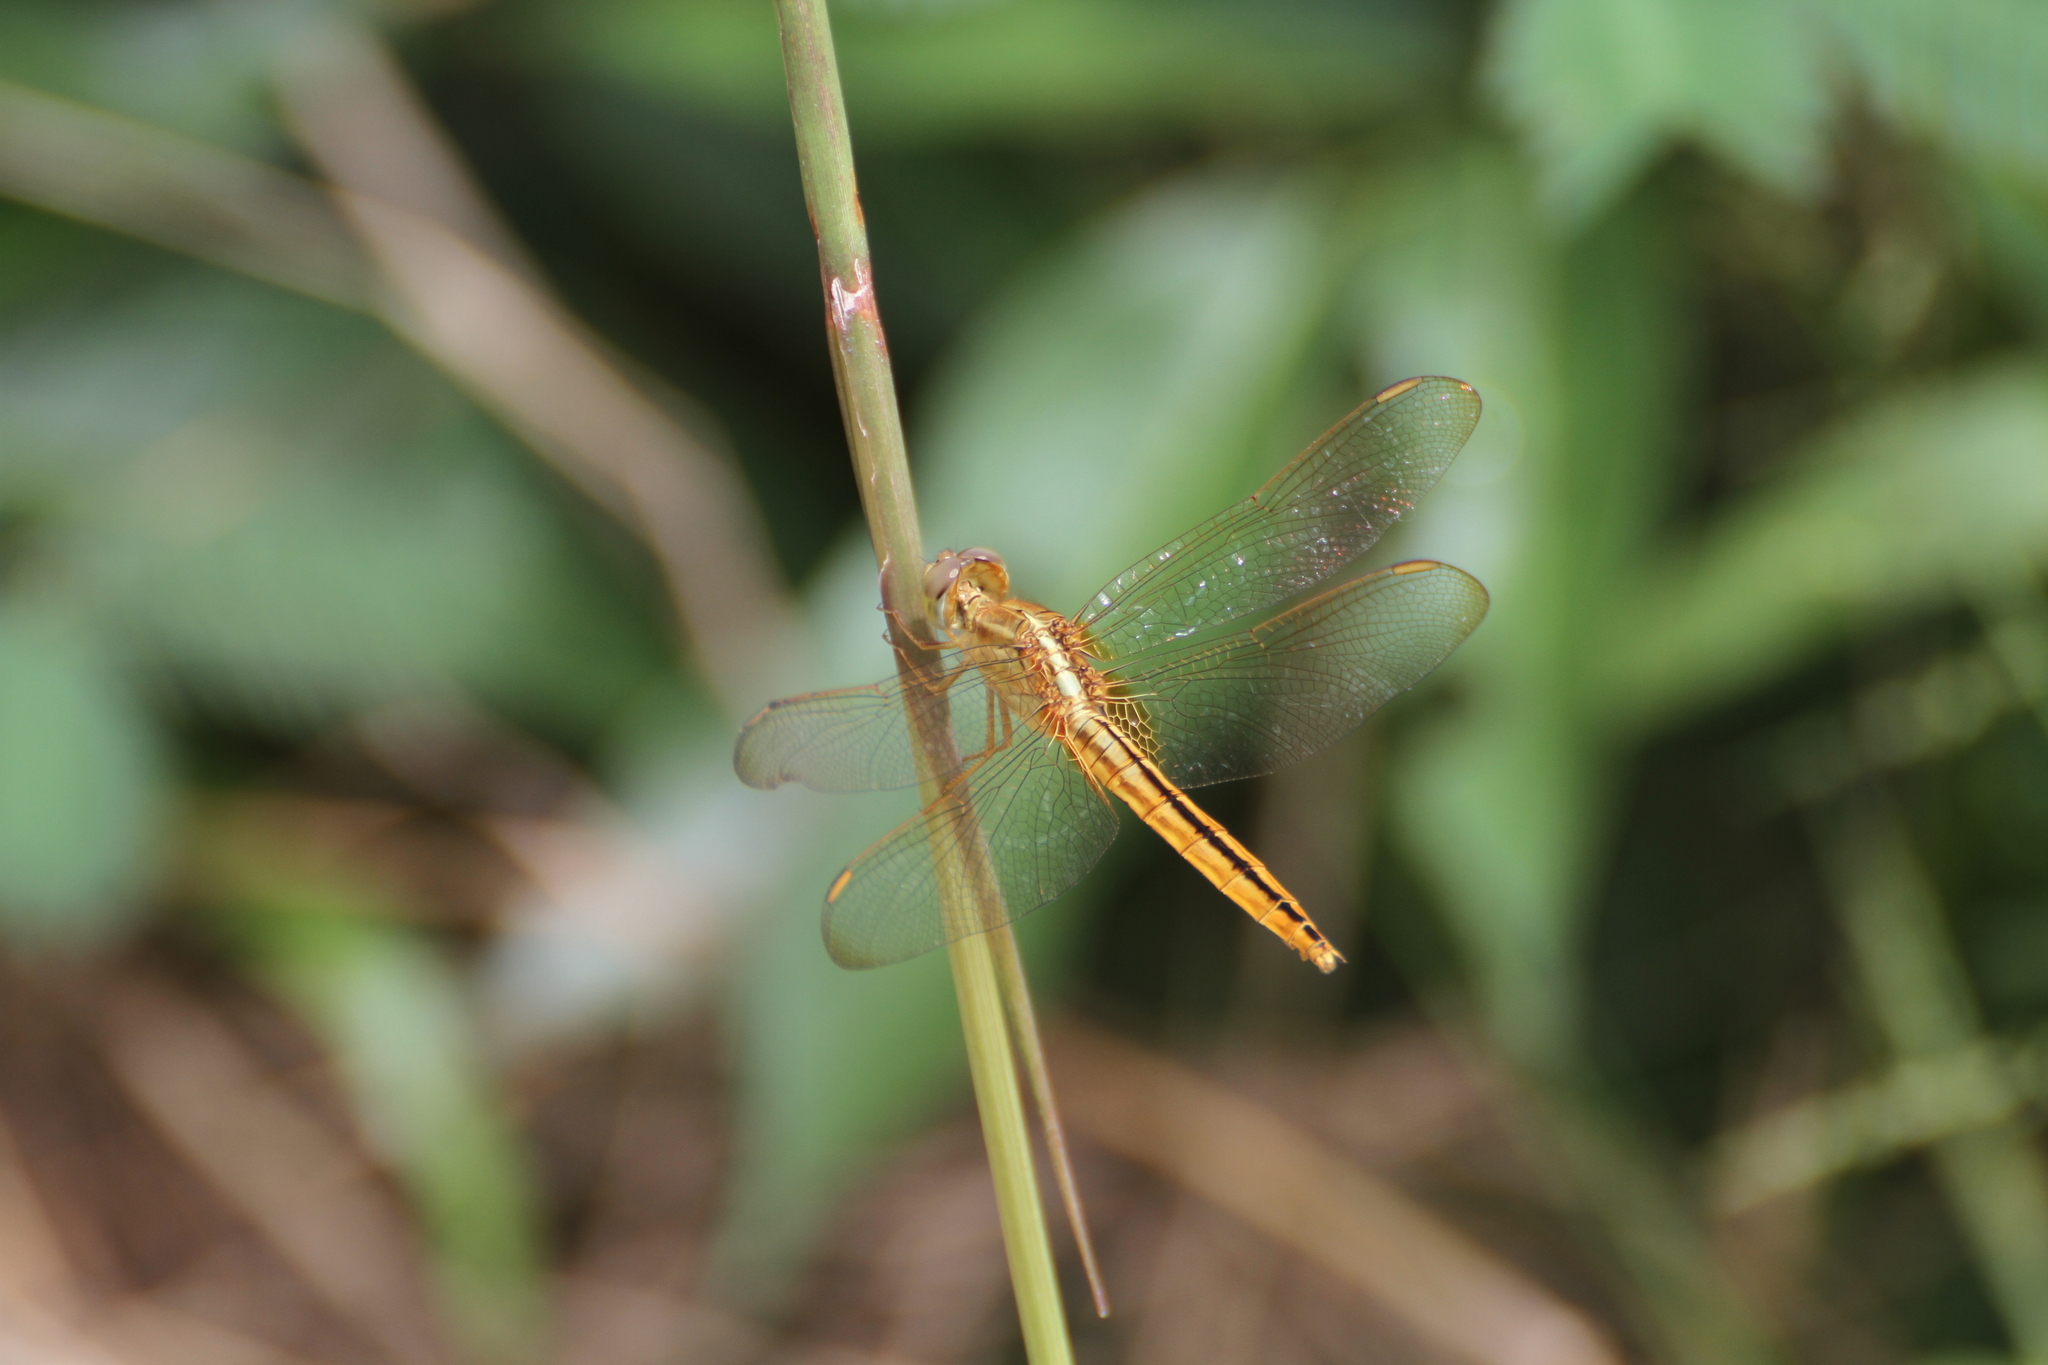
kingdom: Animalia
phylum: Arthropoda
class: Insecta
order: Odonata
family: Libellulidae
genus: Crocothemis
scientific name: Crocothemis servilia
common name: Scarlet skimmer
